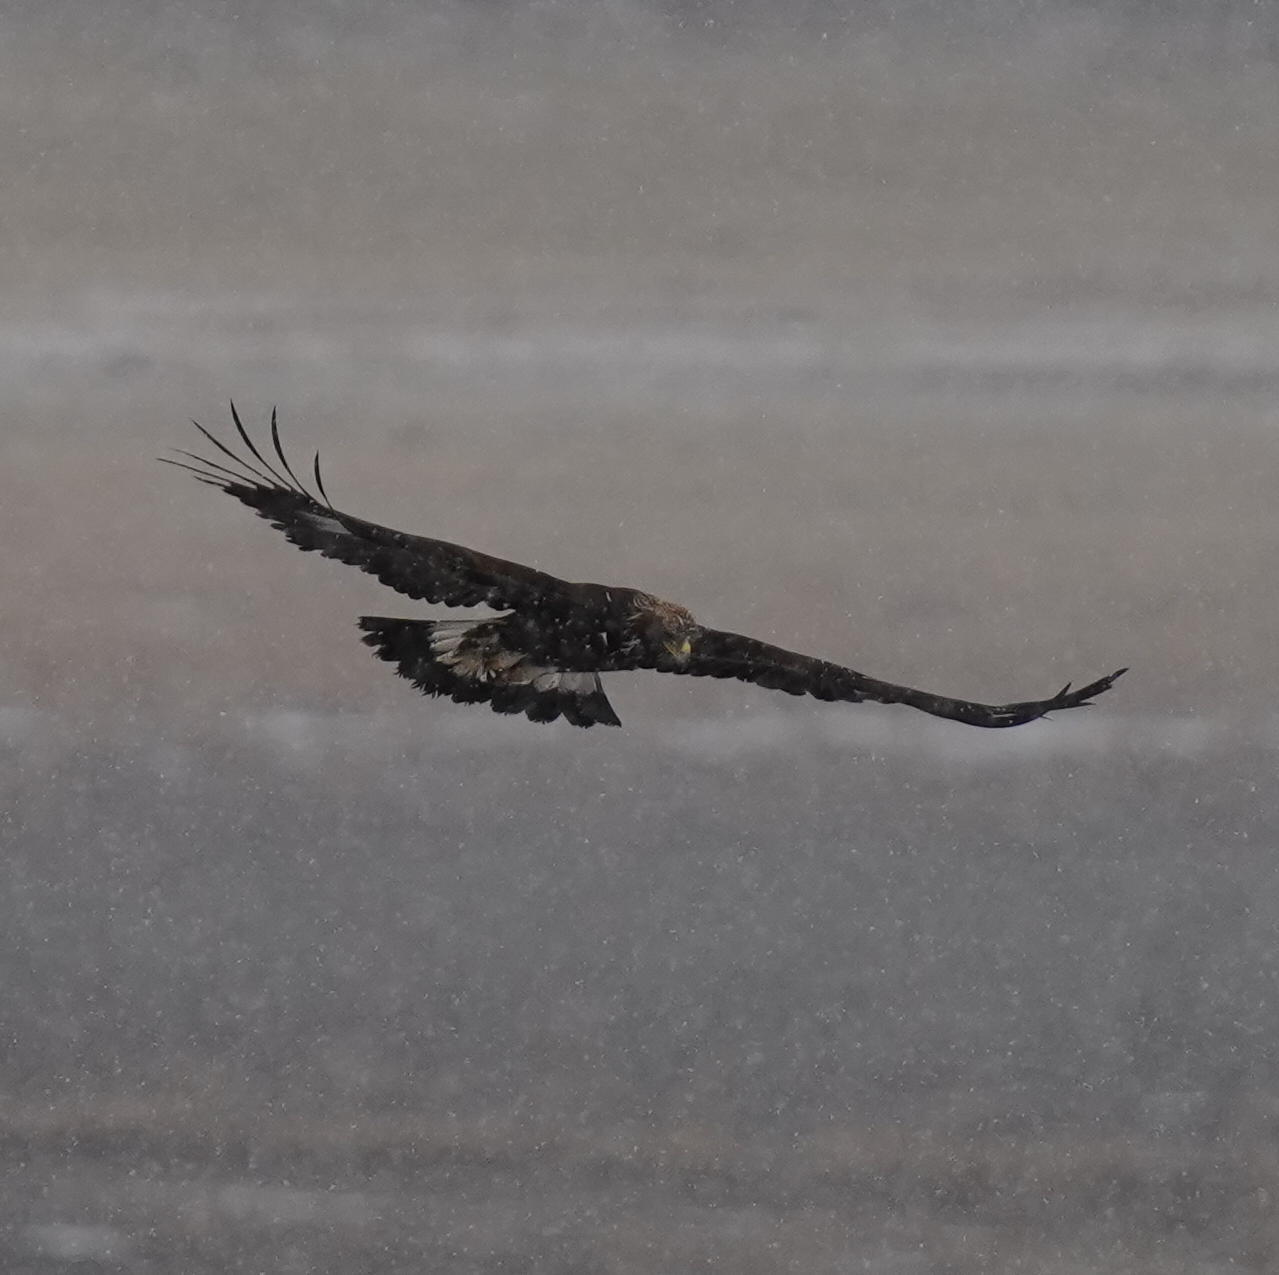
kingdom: Animalia
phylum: Chordata
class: Aves
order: Accipitriformes
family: Accipitridae
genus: Aquila
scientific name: Aquila chrysaetos
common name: Golden eagle
